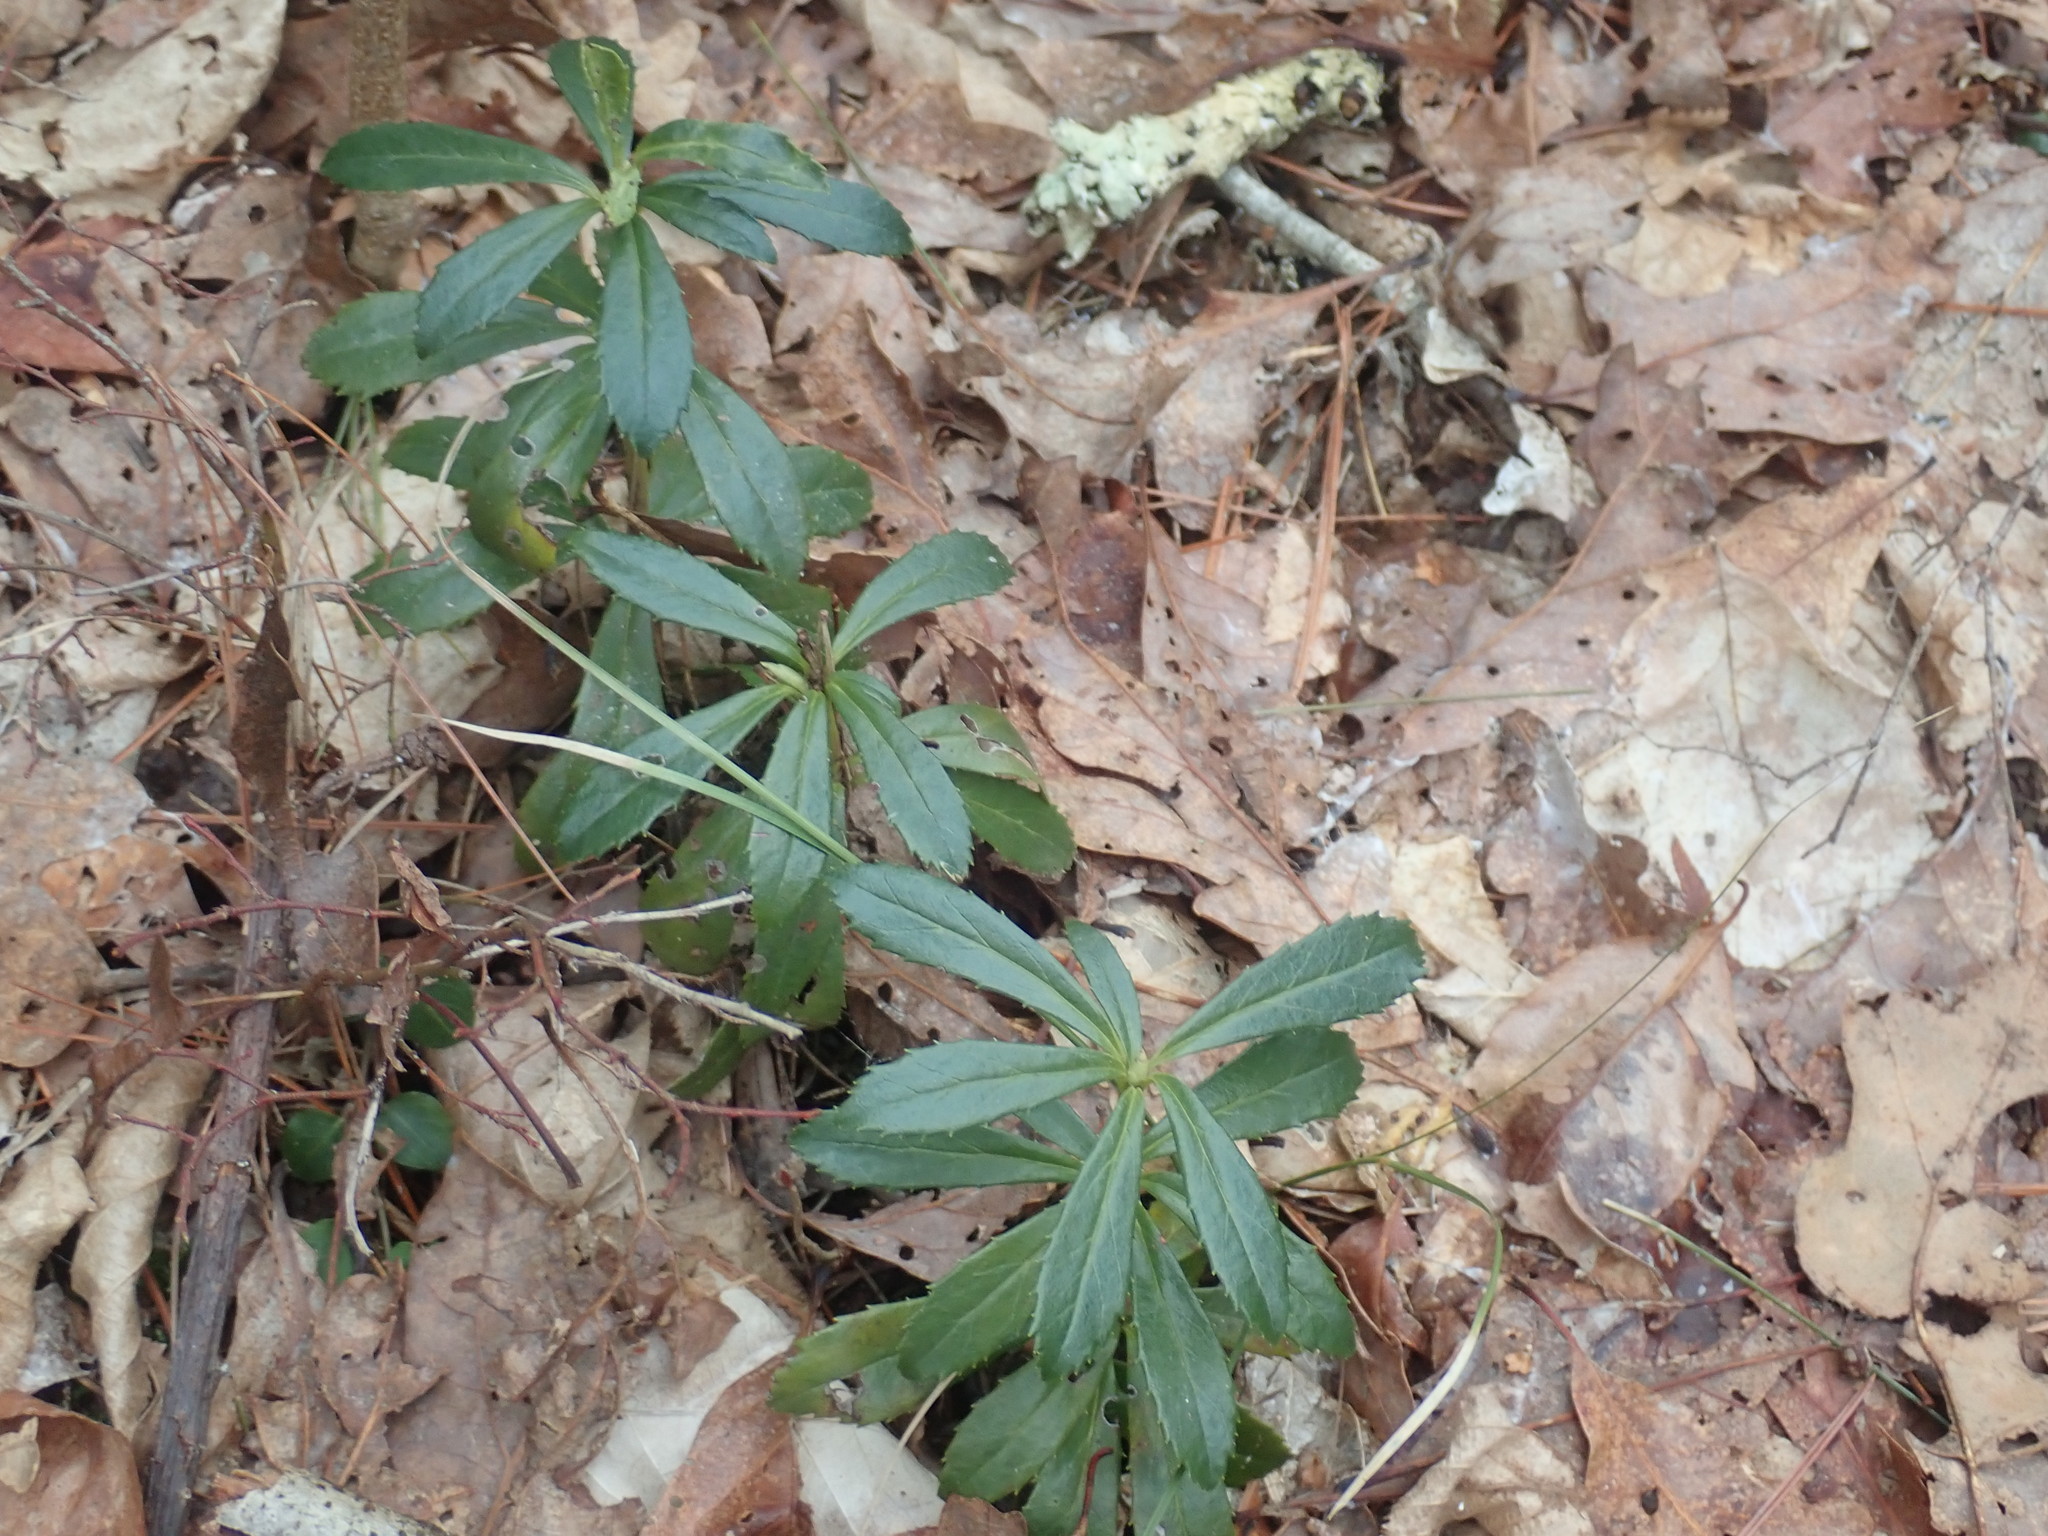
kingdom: Plantae
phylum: Tracheophyta
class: Magnoliopsida
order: Ericales
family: Ericaceae
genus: Chimaphila
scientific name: Chimaphila umbellata
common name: Pipsissewa
